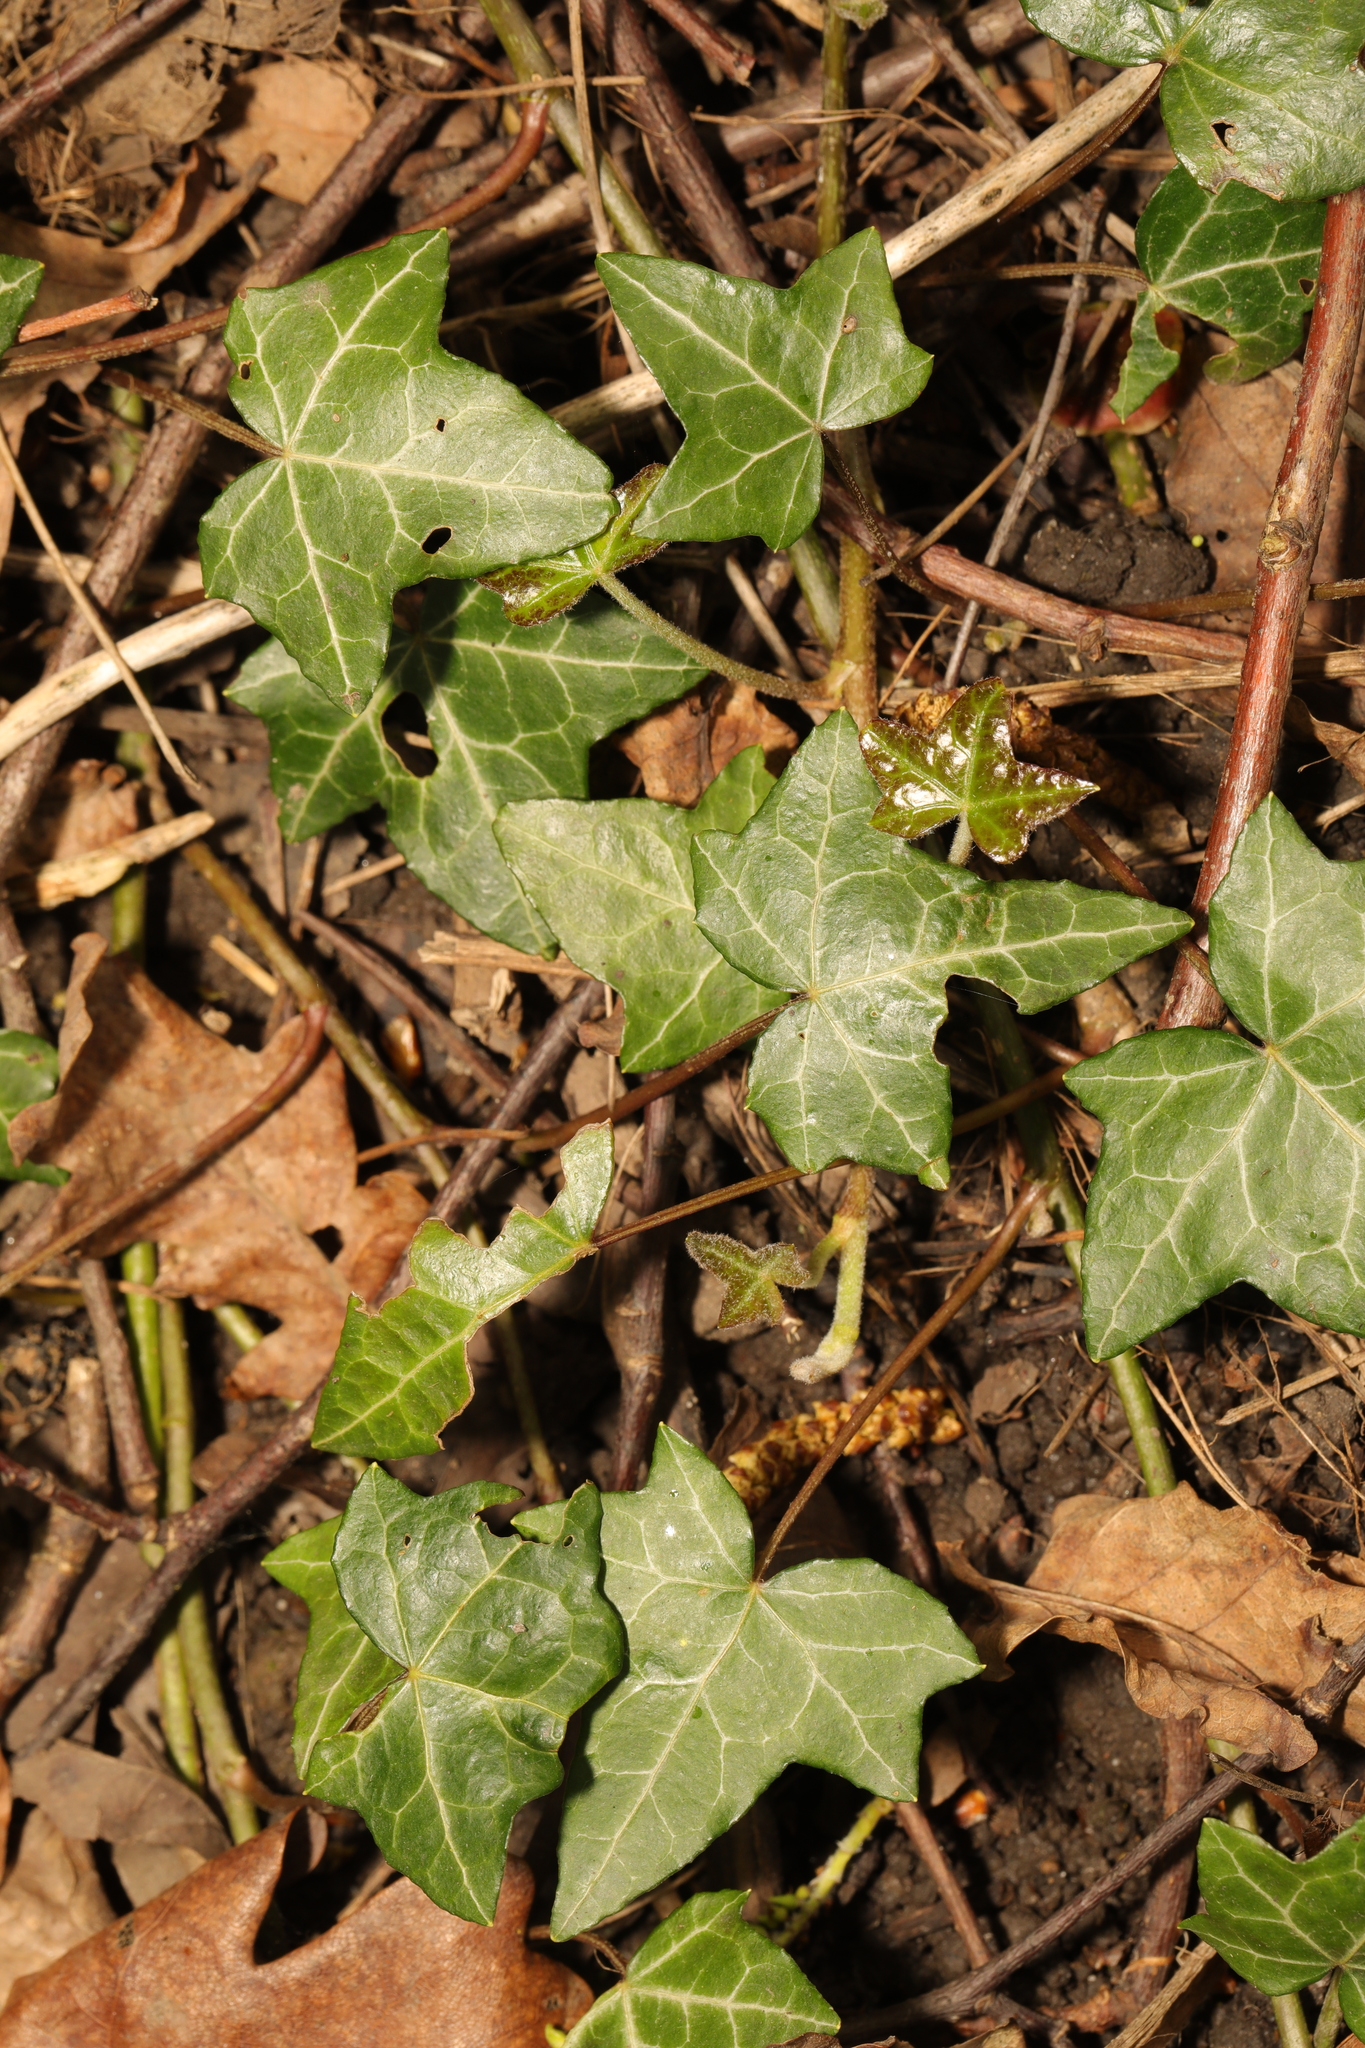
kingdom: Plantae
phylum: Tracheophyta
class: Magnoliopsida
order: Apiales
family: Araliaceae
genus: Hedera
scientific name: Hedera helix
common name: Ivy
